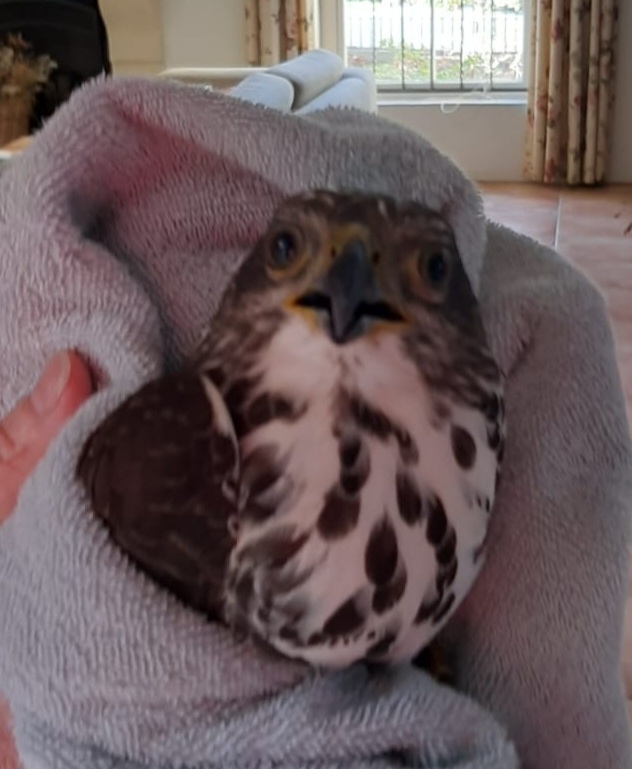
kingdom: Animalia
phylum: Chordata
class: Aves
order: Accipitriformes
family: Accipitridae
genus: Accipiter
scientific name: Accipiter tachiro
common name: African goshawk
